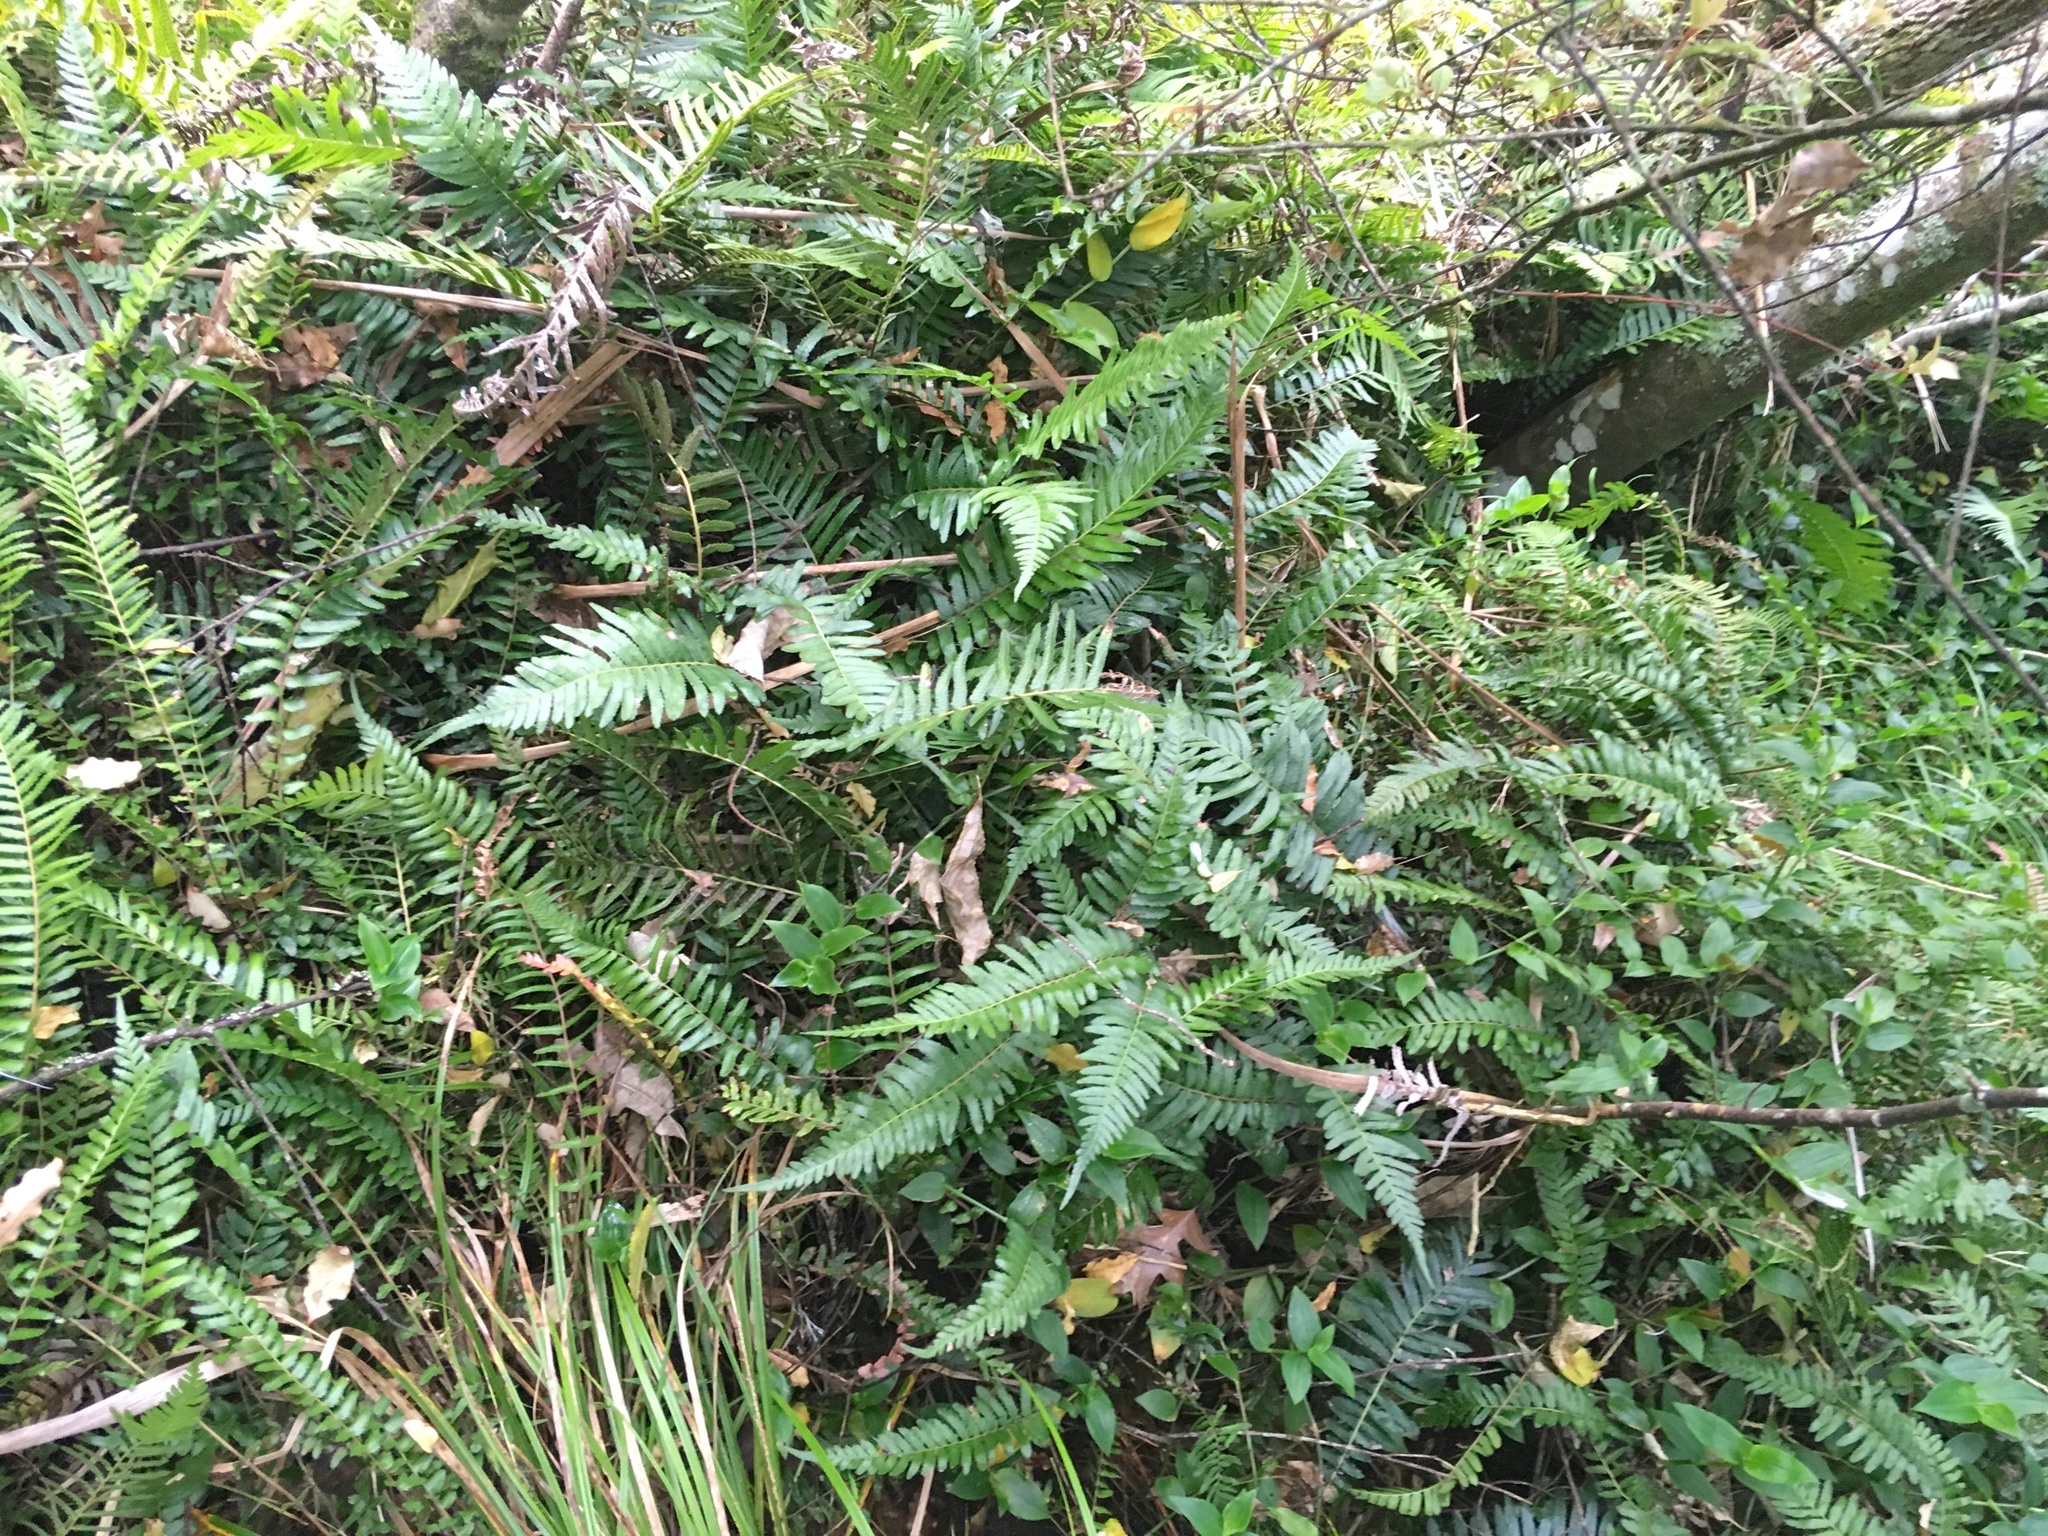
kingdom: Plantae
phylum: Tracheophyta
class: Polypodiopsida
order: Polypodiales
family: Blechnaceae
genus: Doodia
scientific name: Doodia australis
